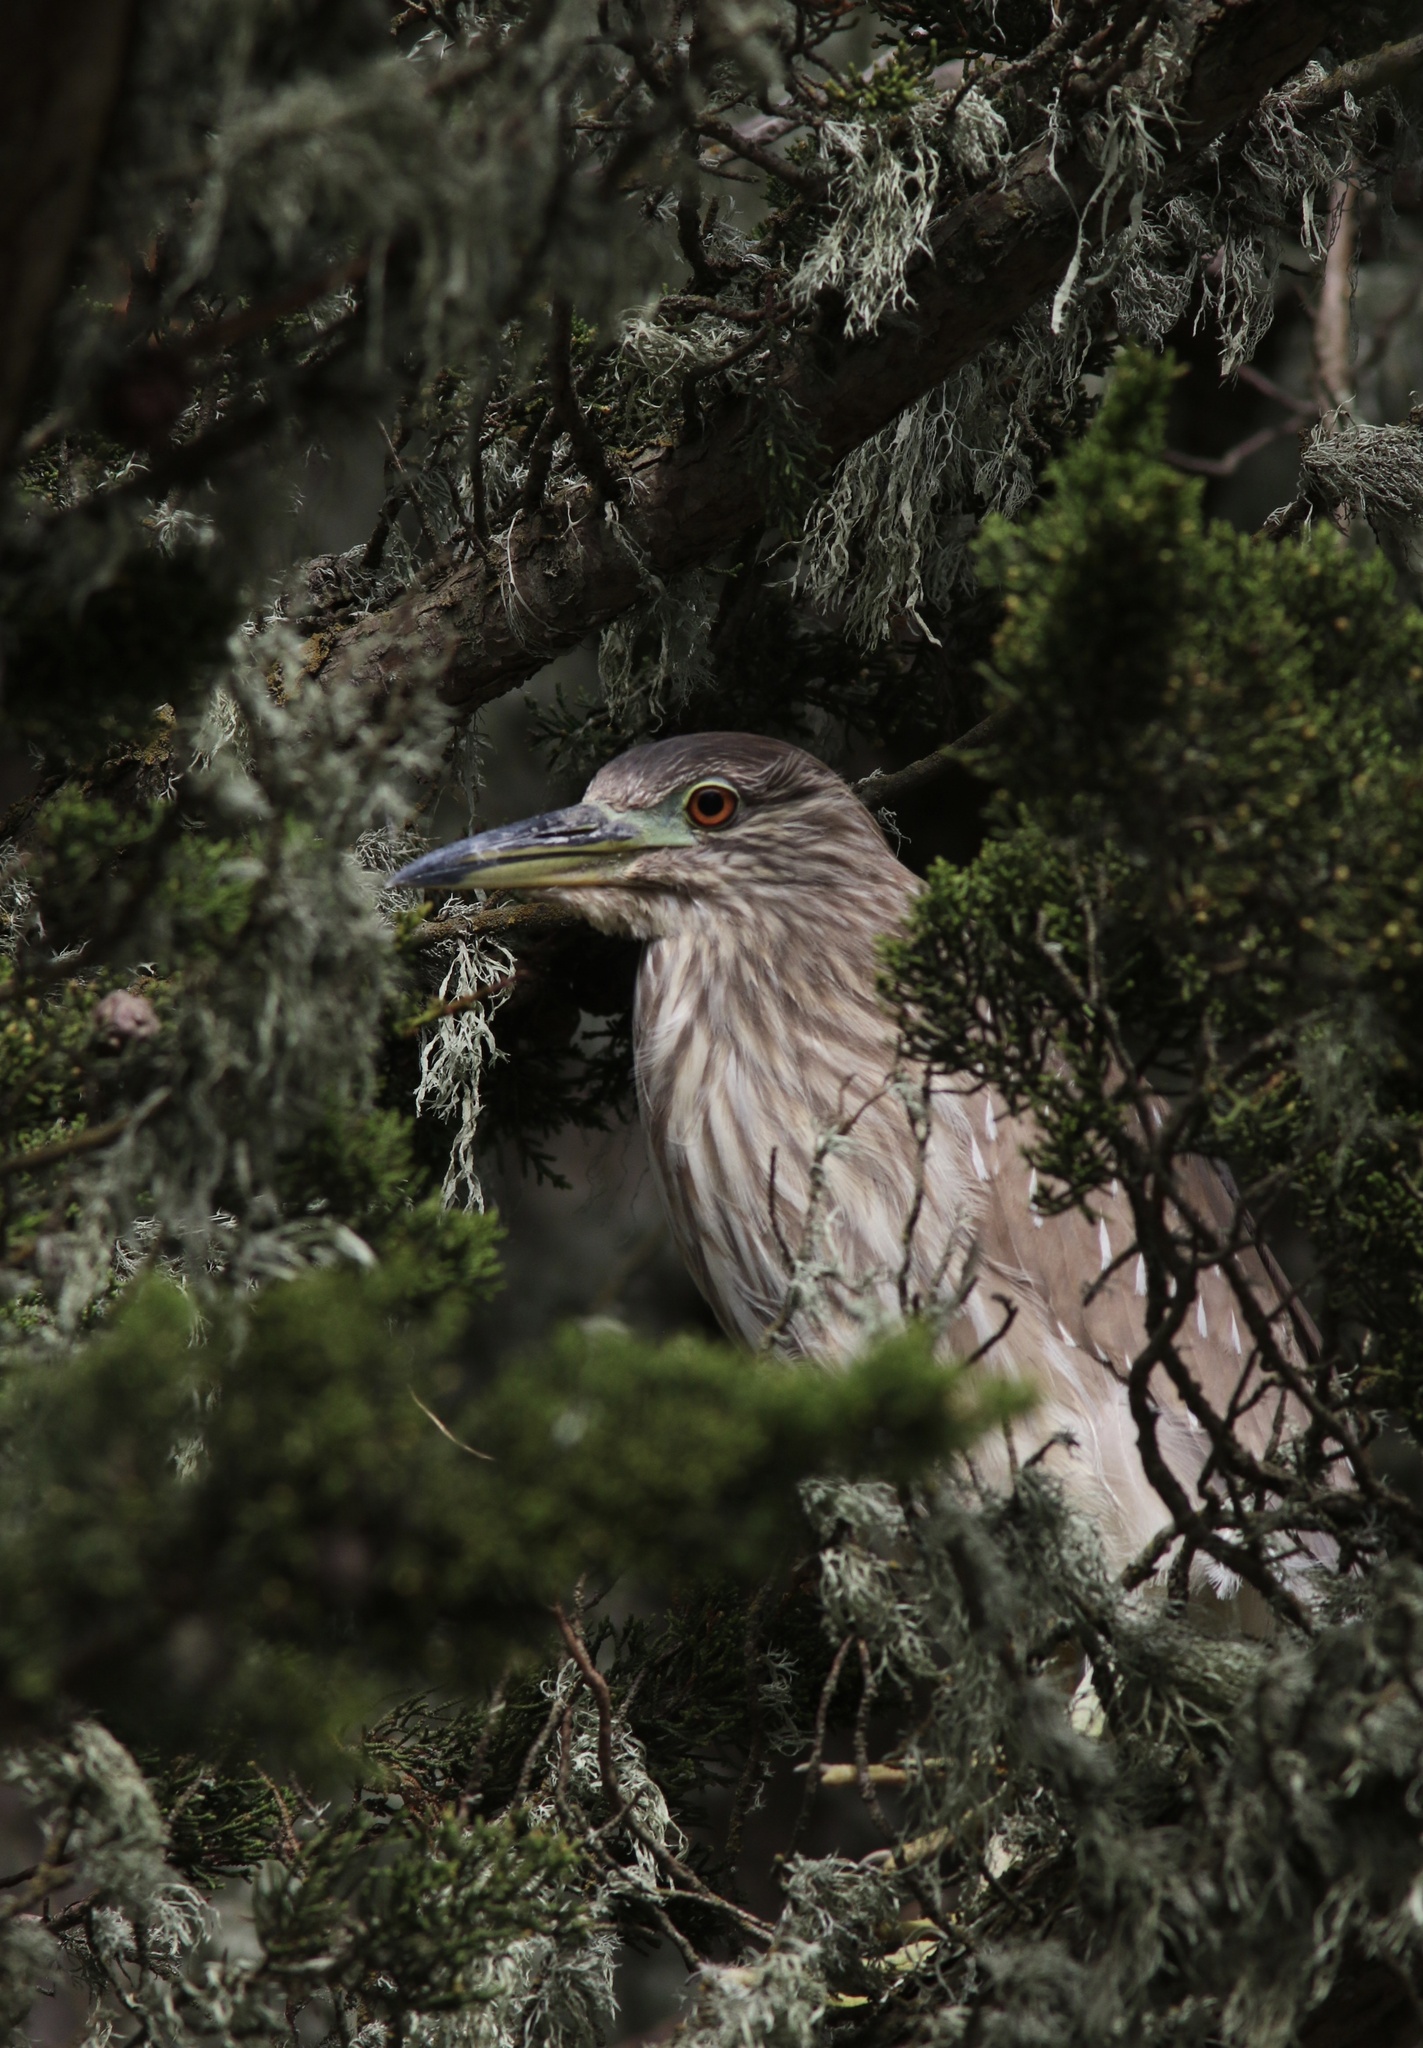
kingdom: Animalia
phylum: Chordata
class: Aves
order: Pelecaniformes
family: Ardeidae
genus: Nycticorax
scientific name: Nycticorax nycticorax
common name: Black-crowned night heron
